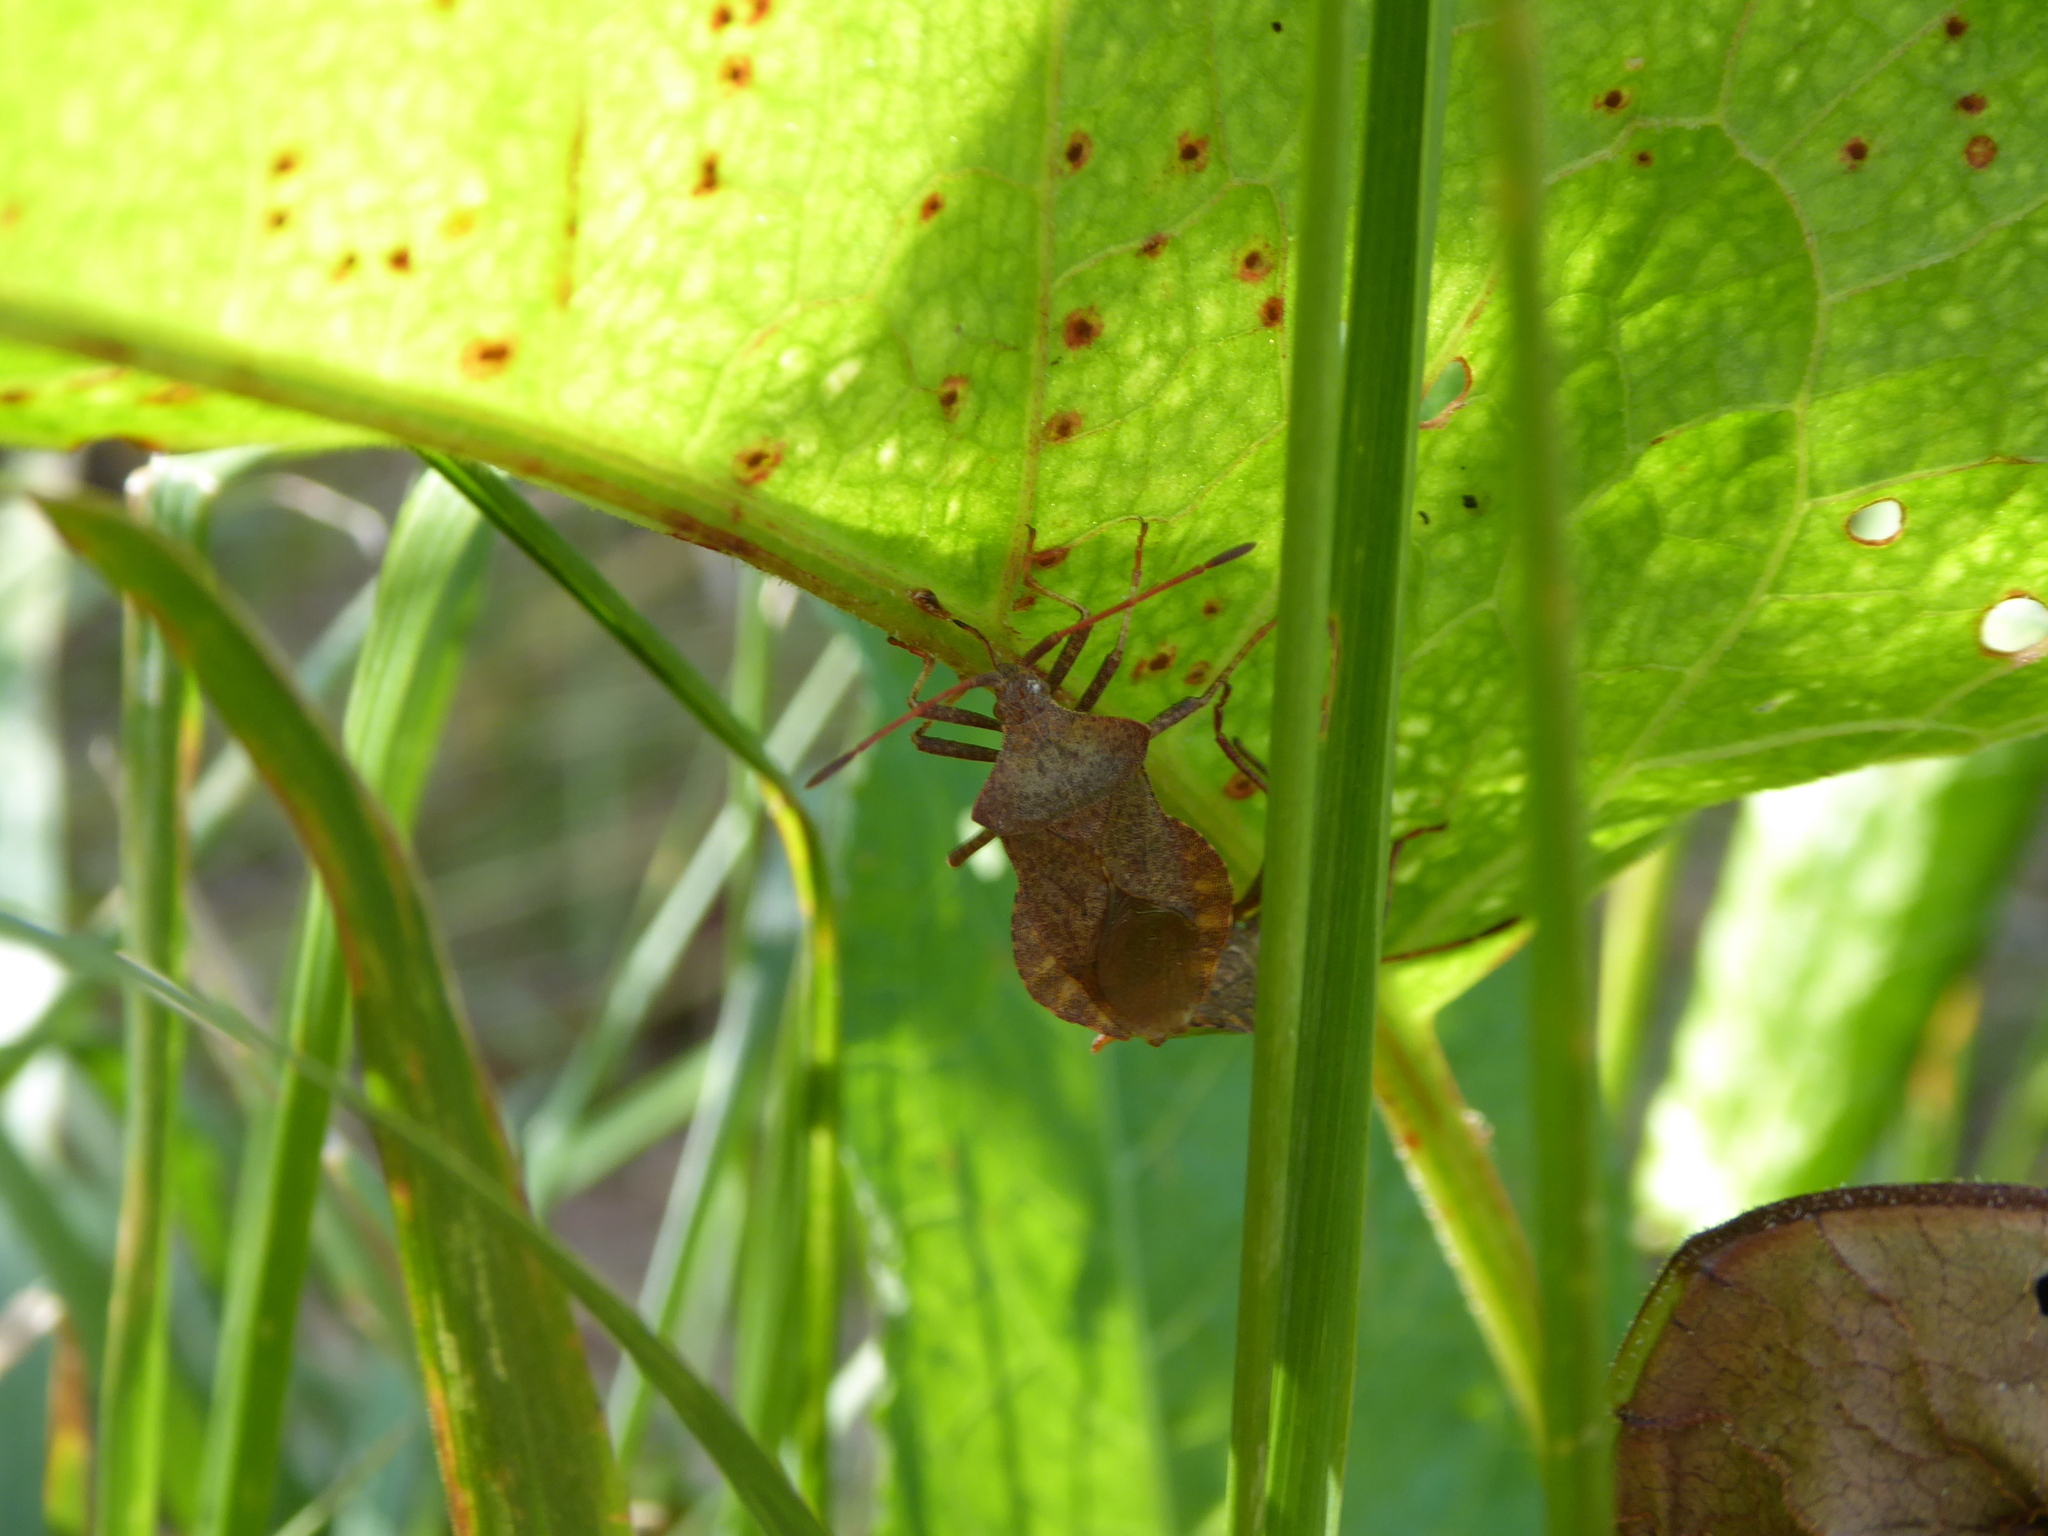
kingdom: Animalia
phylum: Arthropoda
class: Insecta
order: Hemiptera
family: Coreidae
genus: Coreus
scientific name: Coreus marginatus
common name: Dock bug
